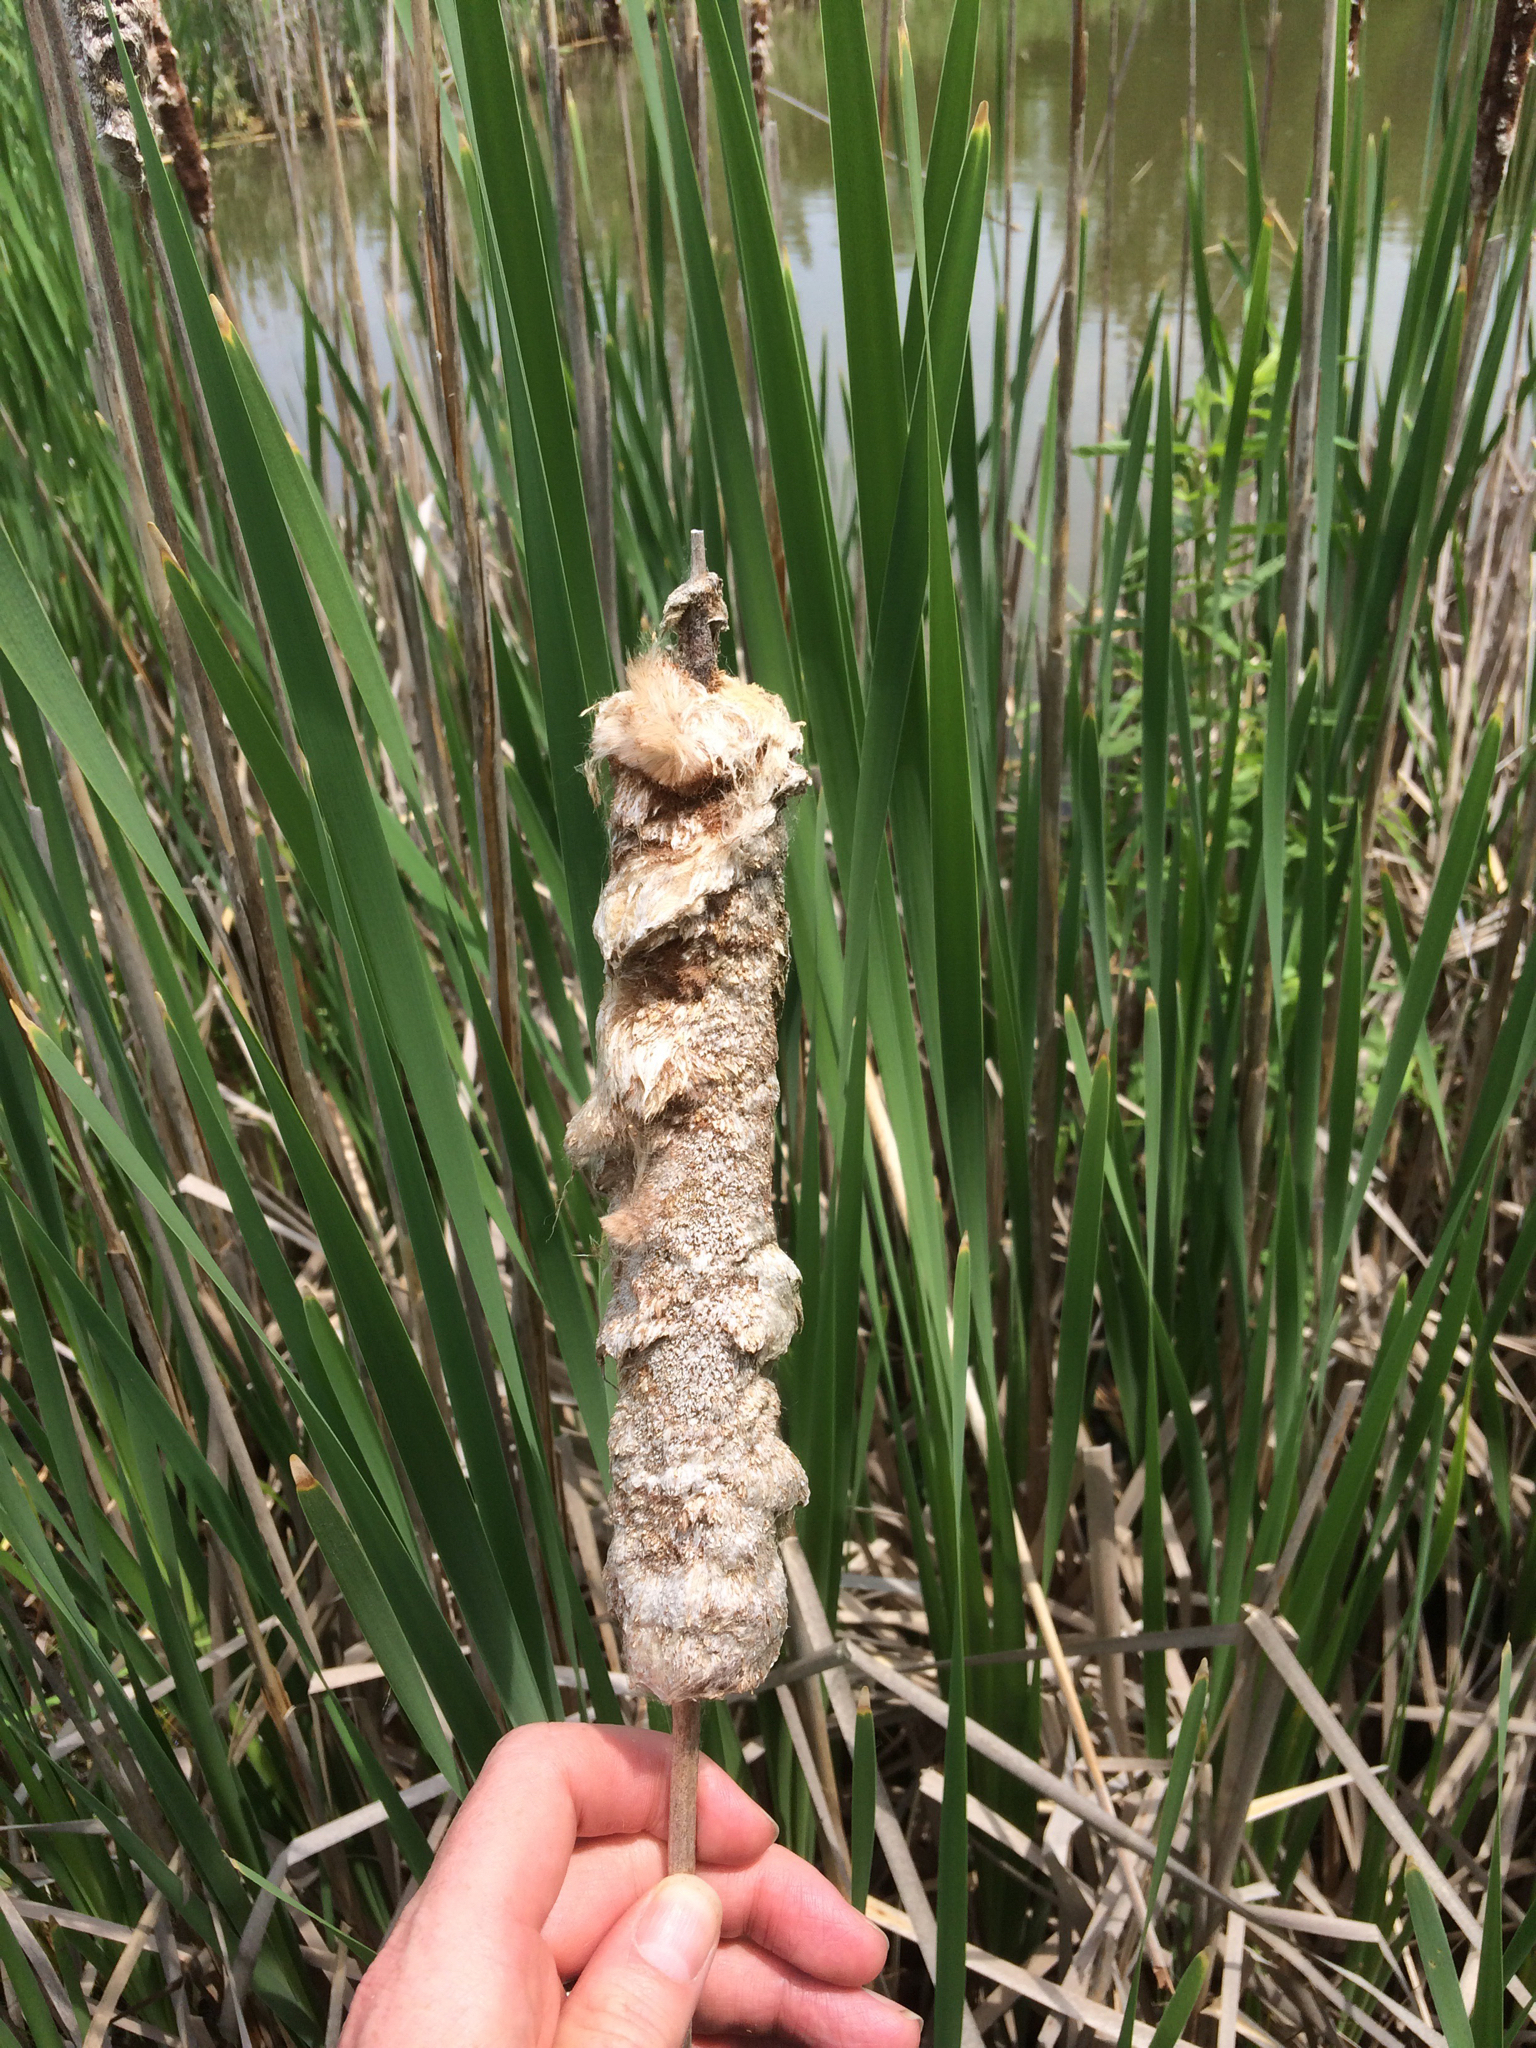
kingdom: Plantae
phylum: Tracheophyta
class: Liliopsida
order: Poales
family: Typhaceae
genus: Typha
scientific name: Typha latifolia
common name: Broadleaf cattail
